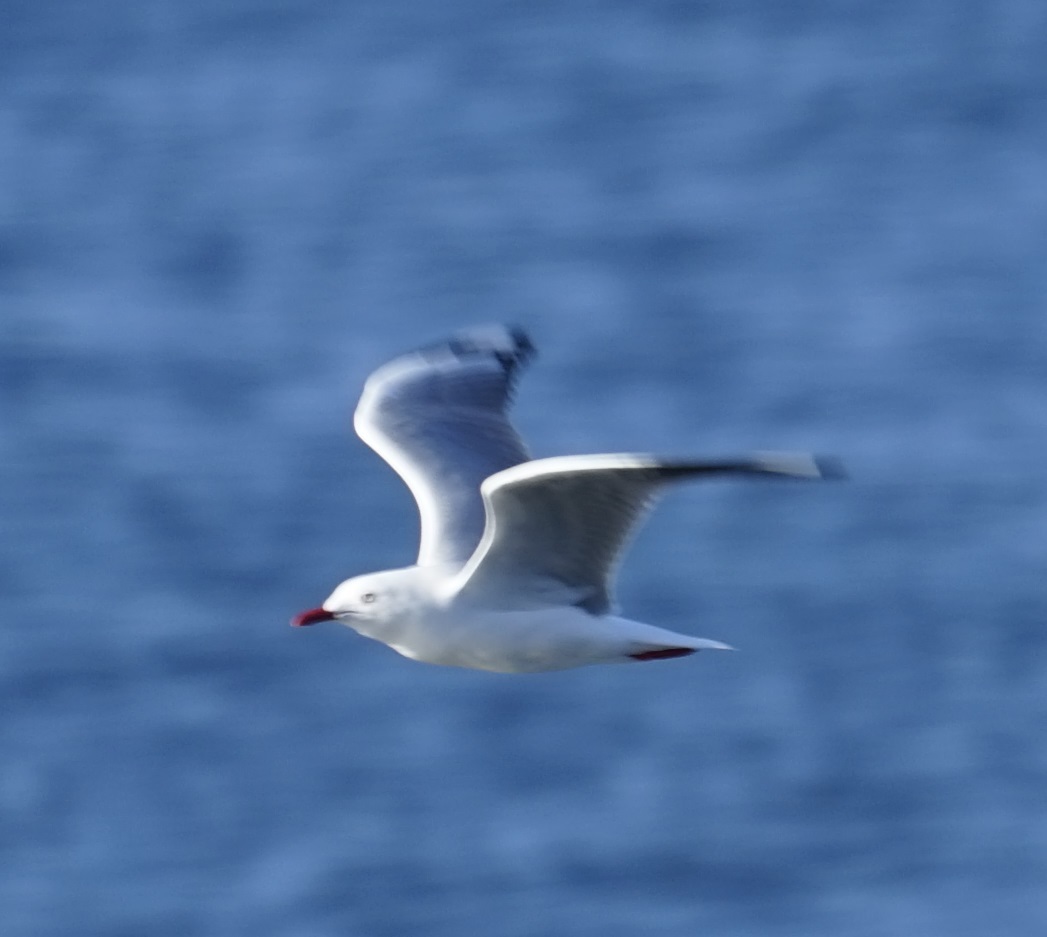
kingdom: Animalia
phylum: Chordata
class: Aves
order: Charadriiformes
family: Laridae
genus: Chroicocephalus
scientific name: Chroicocephalus novaehollandiae
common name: Silver gull
